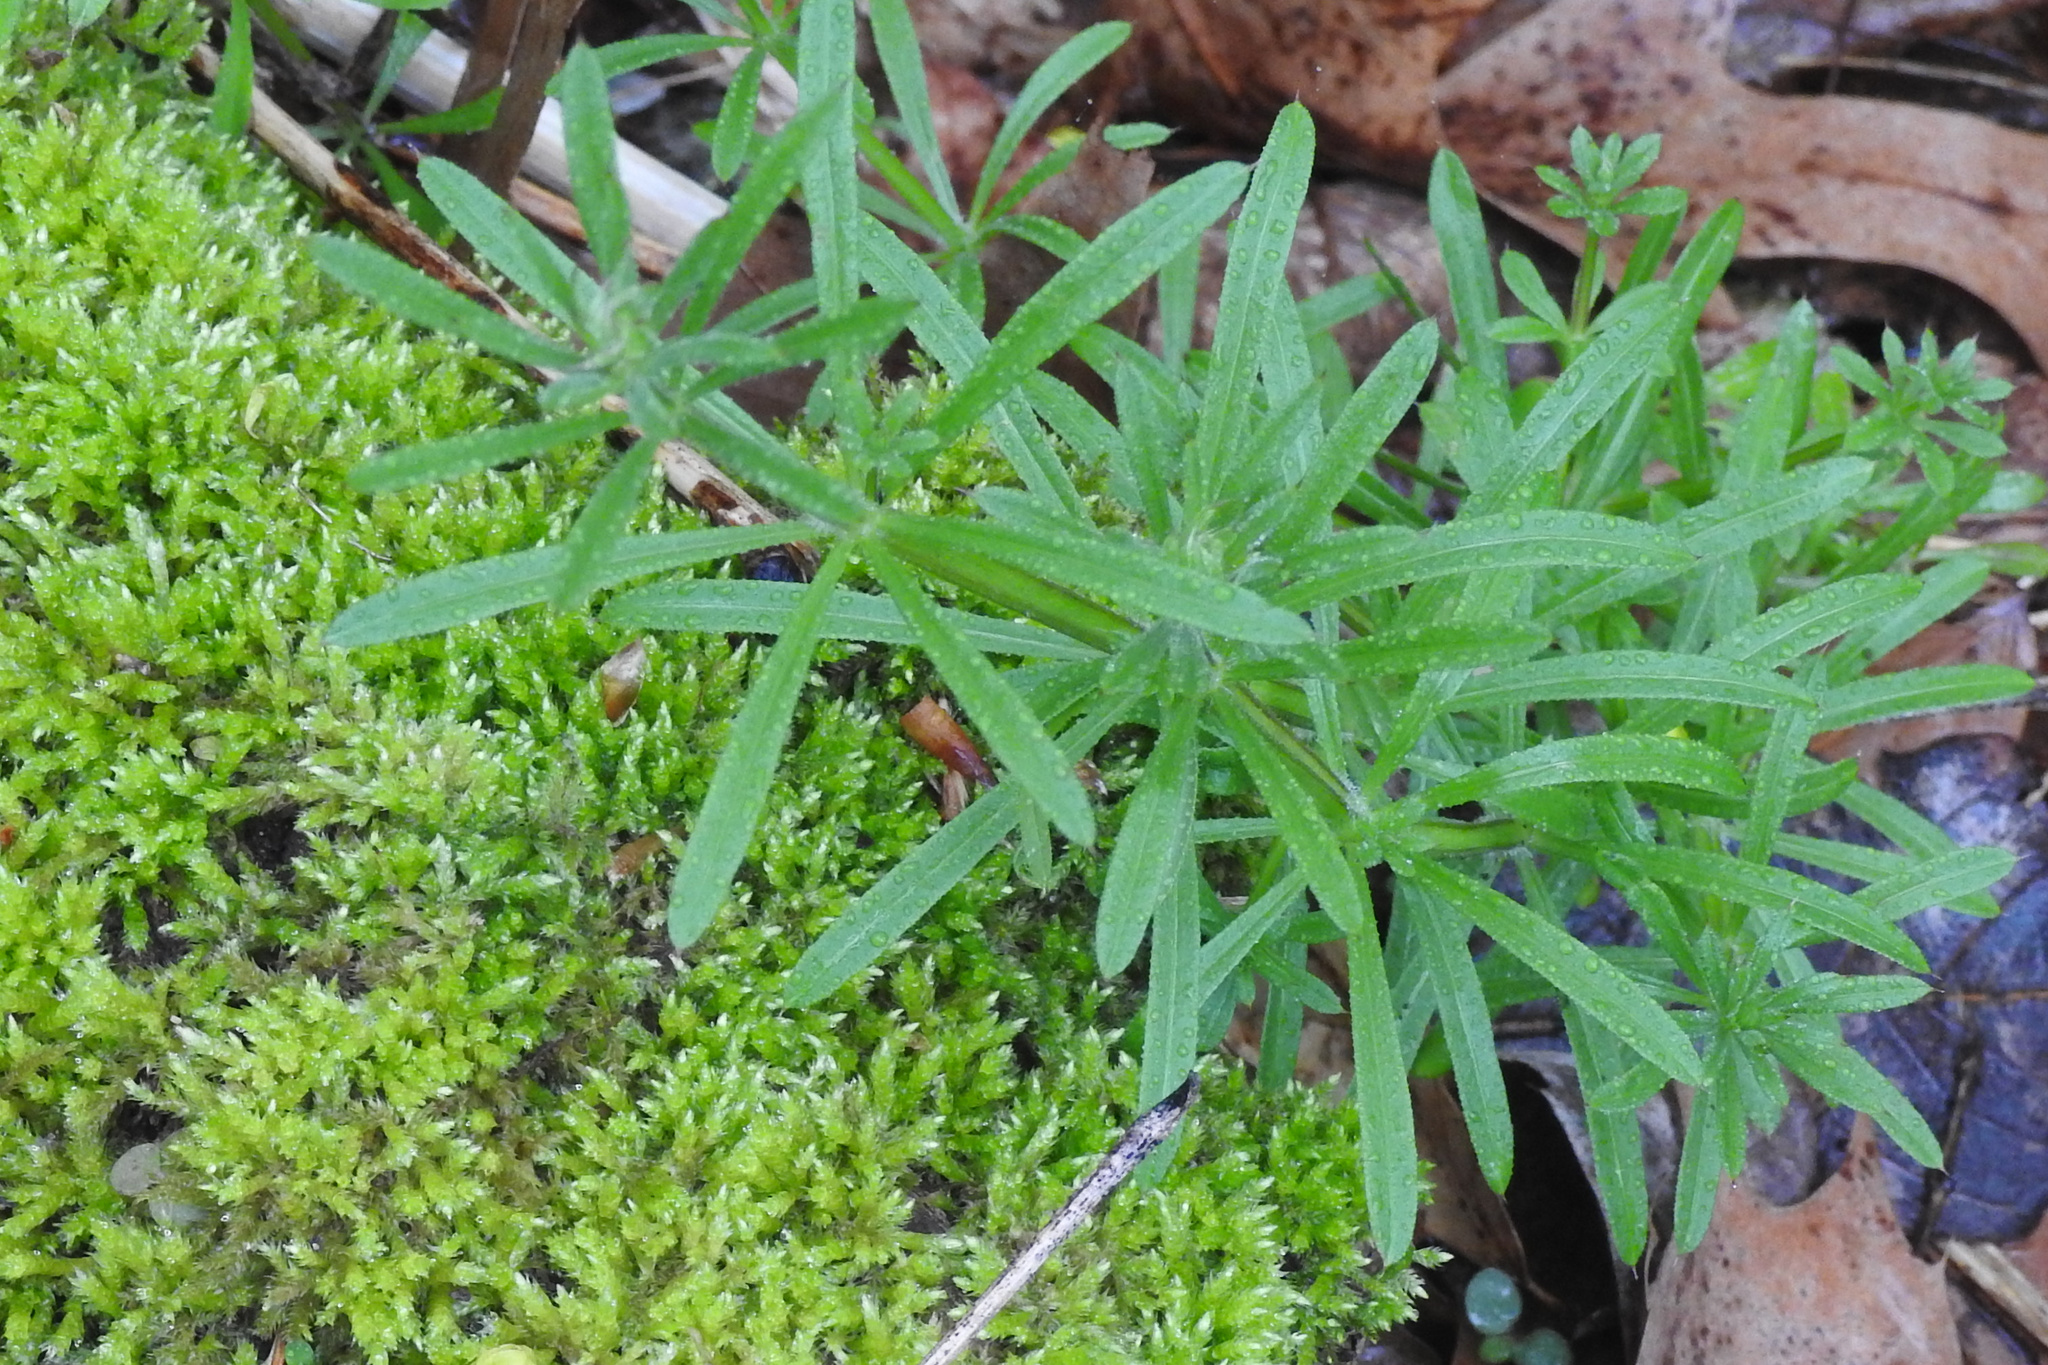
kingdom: Plantae
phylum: Tracheophyta
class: Magnoliopsida
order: Gentianales
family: Rubiaceae
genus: Galium
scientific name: Galium aparine
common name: Cleavers
